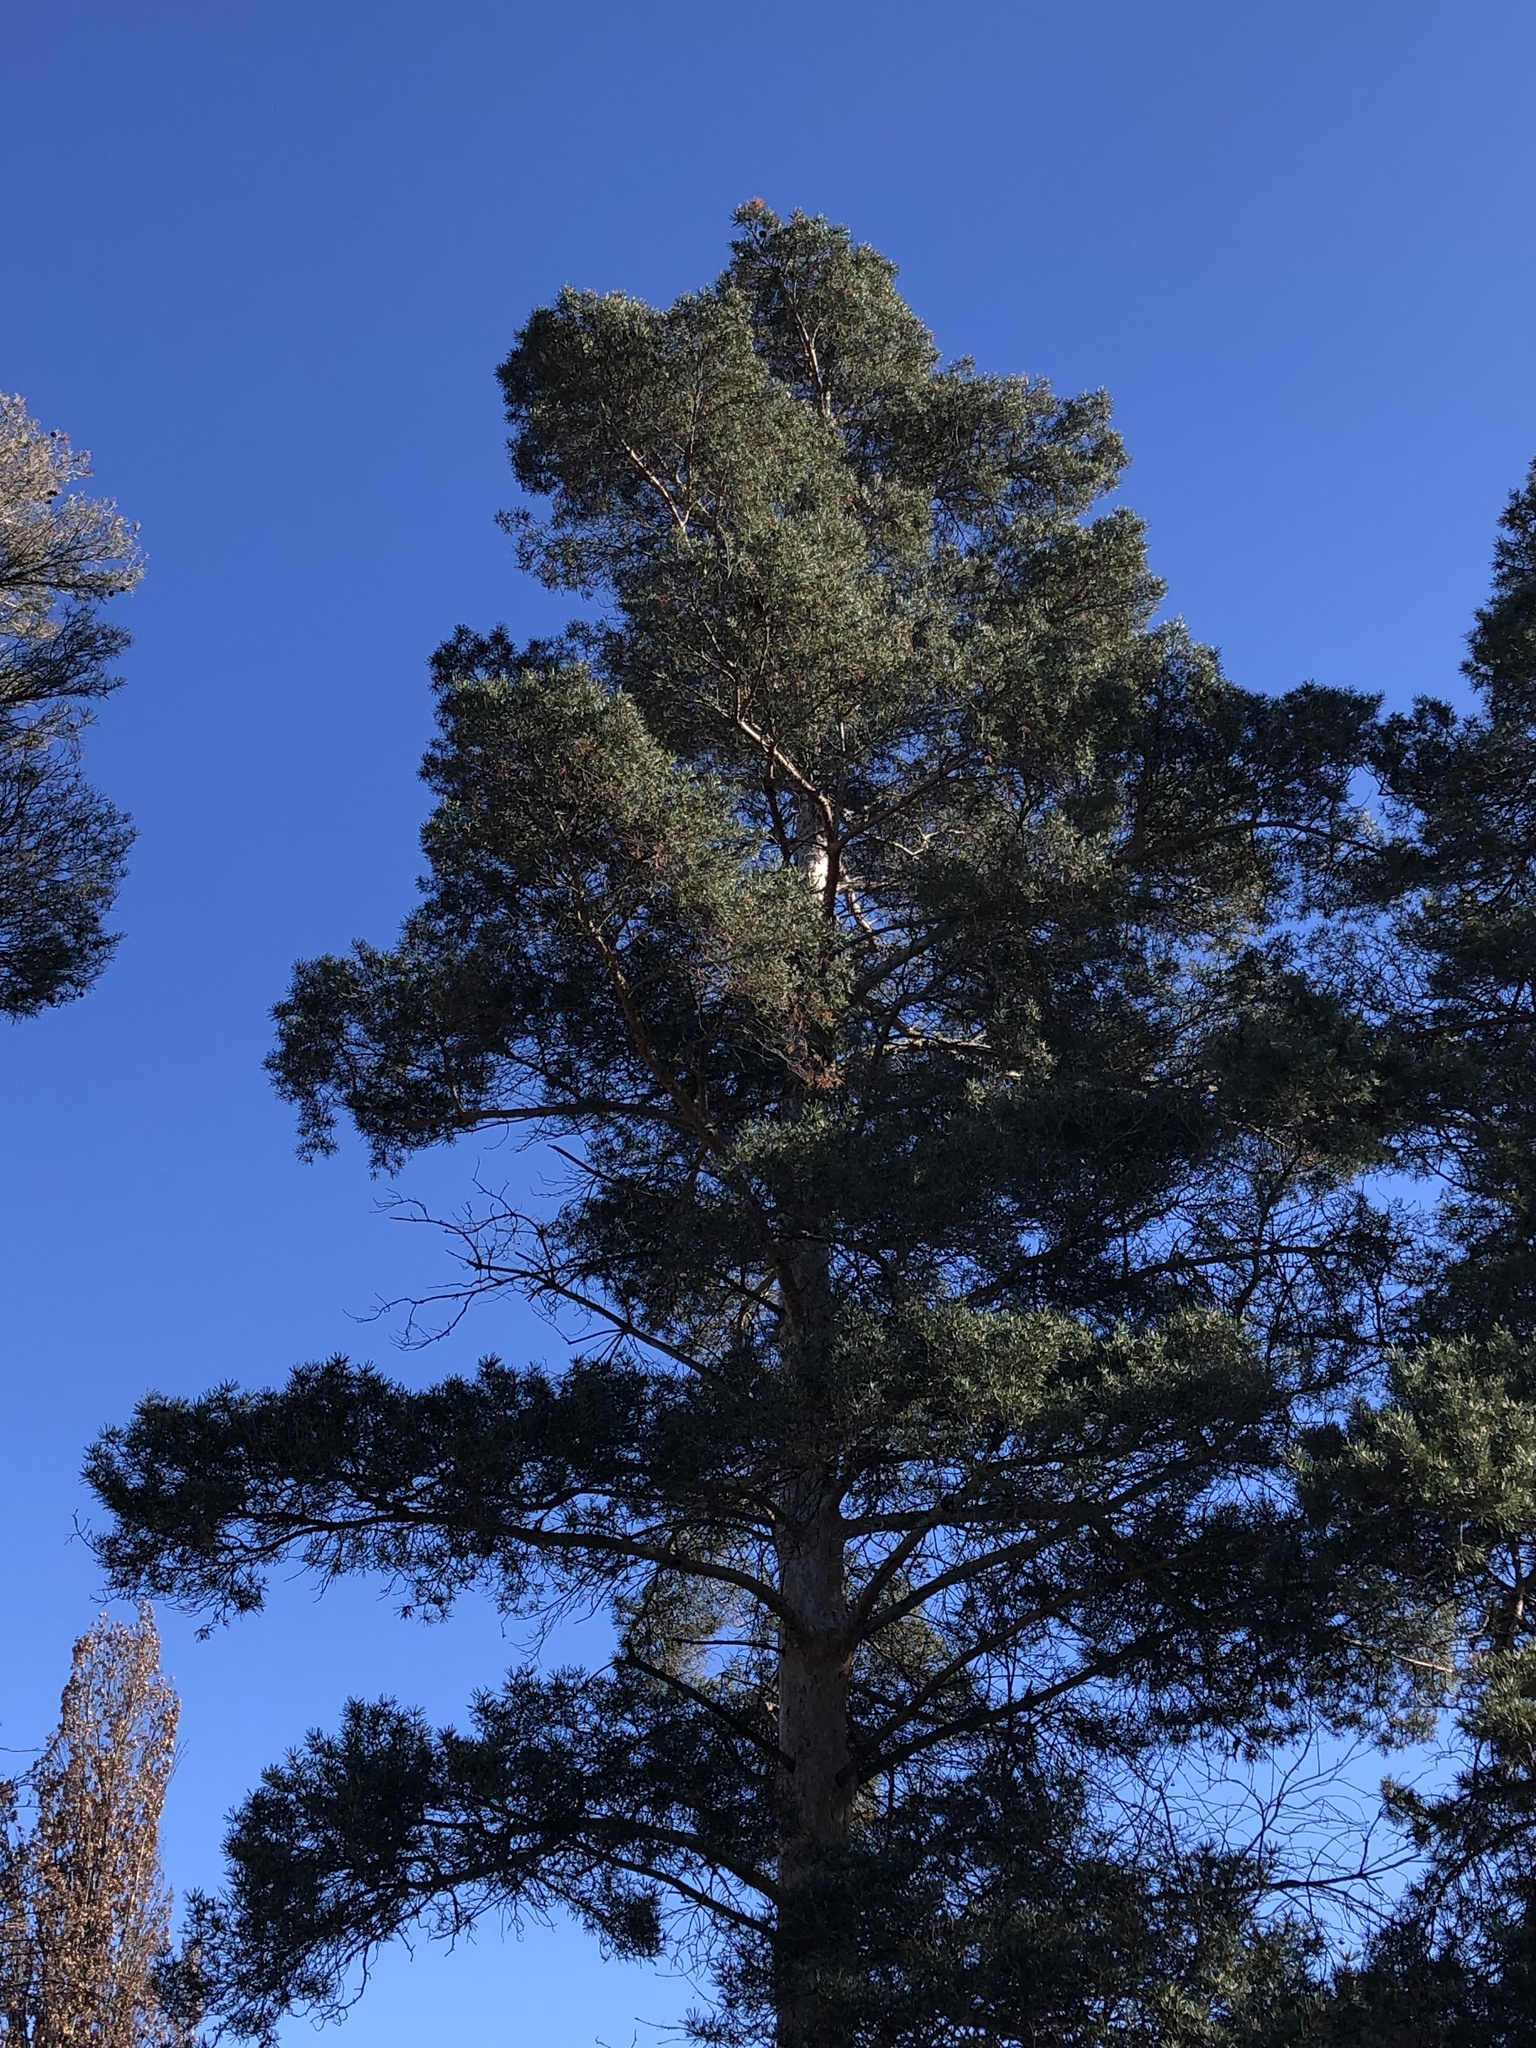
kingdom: Plantae
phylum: Tracheophyta
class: Pinopsida
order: Pinales
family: Pinaceae
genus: Pinus
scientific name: Pinus sylvestris
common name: Scots pine
